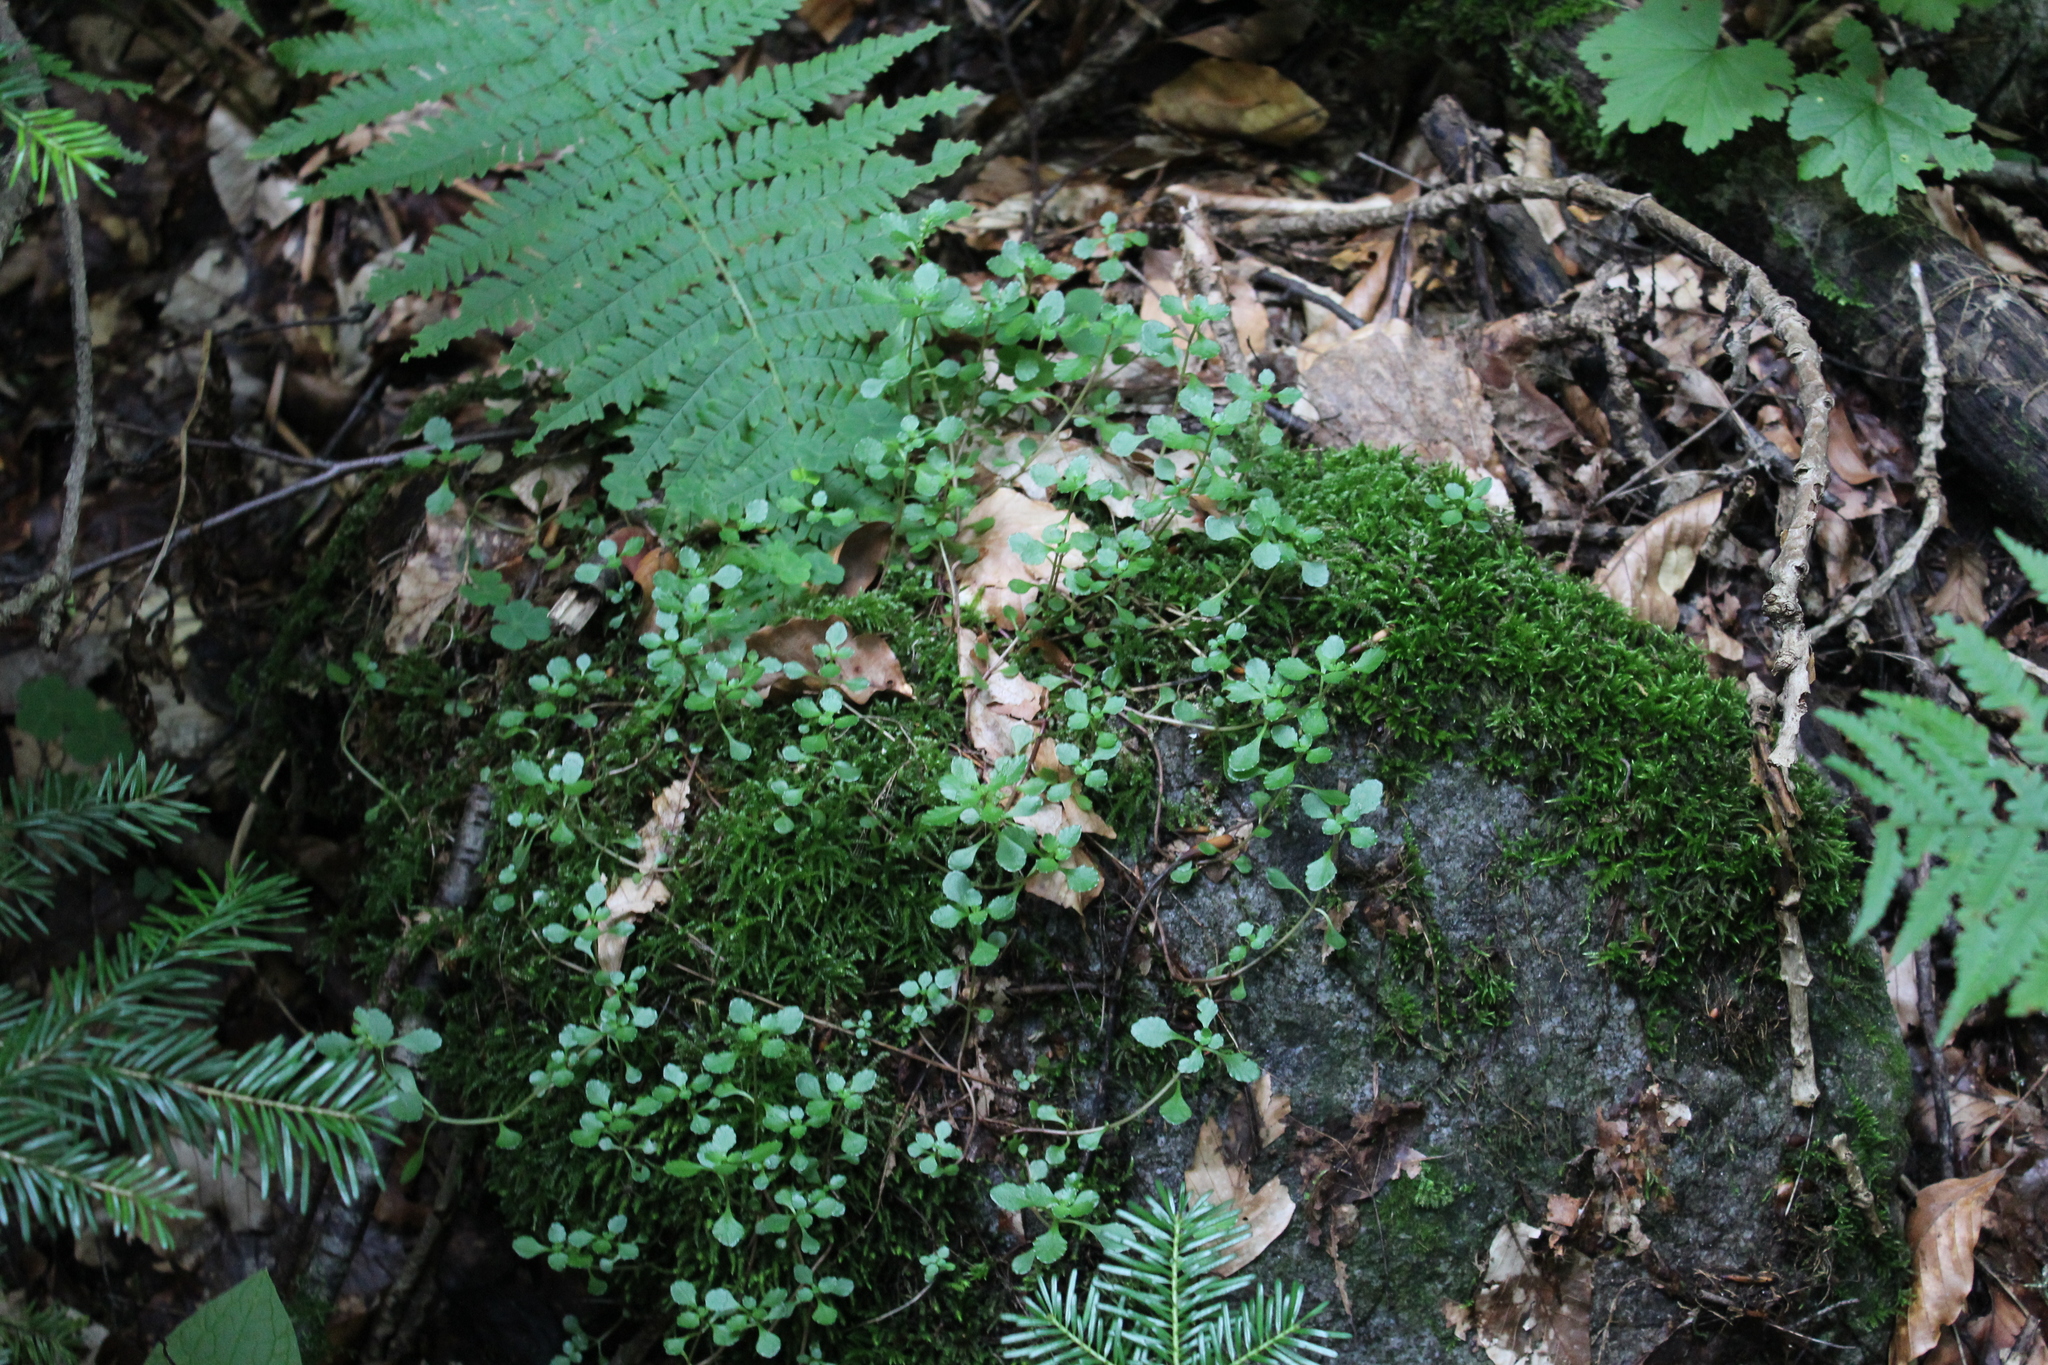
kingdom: Plantae
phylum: Tracheophyta
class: Magnoliopsida
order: Saxifragales
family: Crassulaceae
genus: Phedimus
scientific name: Phedimus stolonifer
